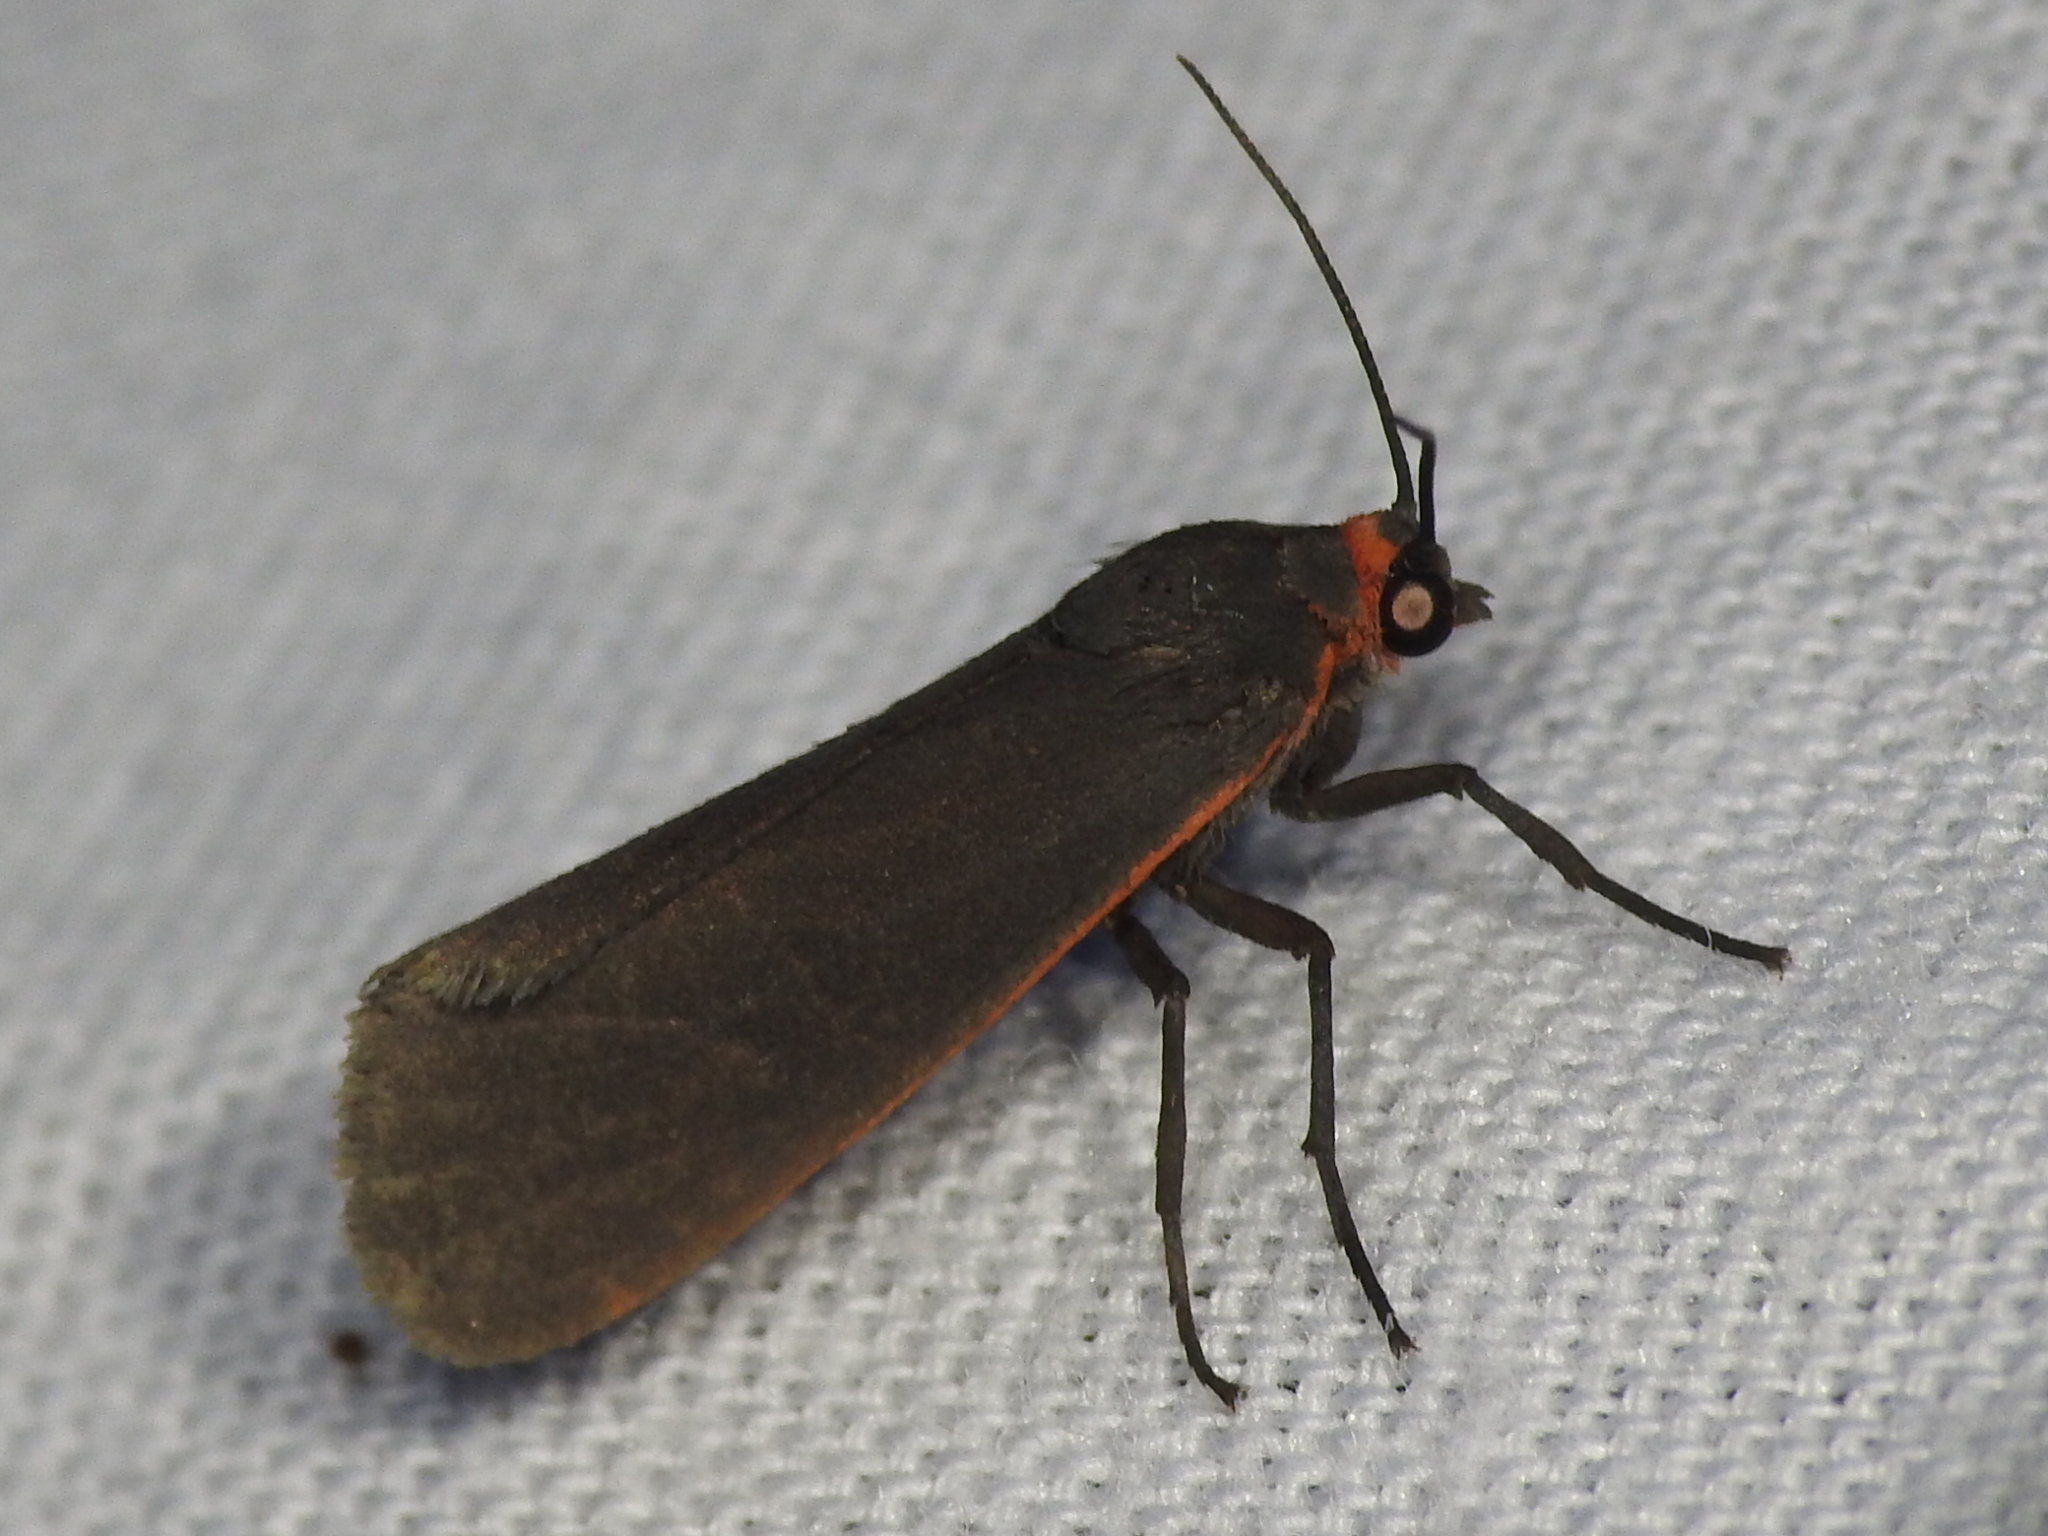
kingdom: Animalia
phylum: Arthropoda
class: Insecta
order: Lepidoptera
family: Erebidae
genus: Virbia
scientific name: Virbia laeta
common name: Joyful holomelina moth
